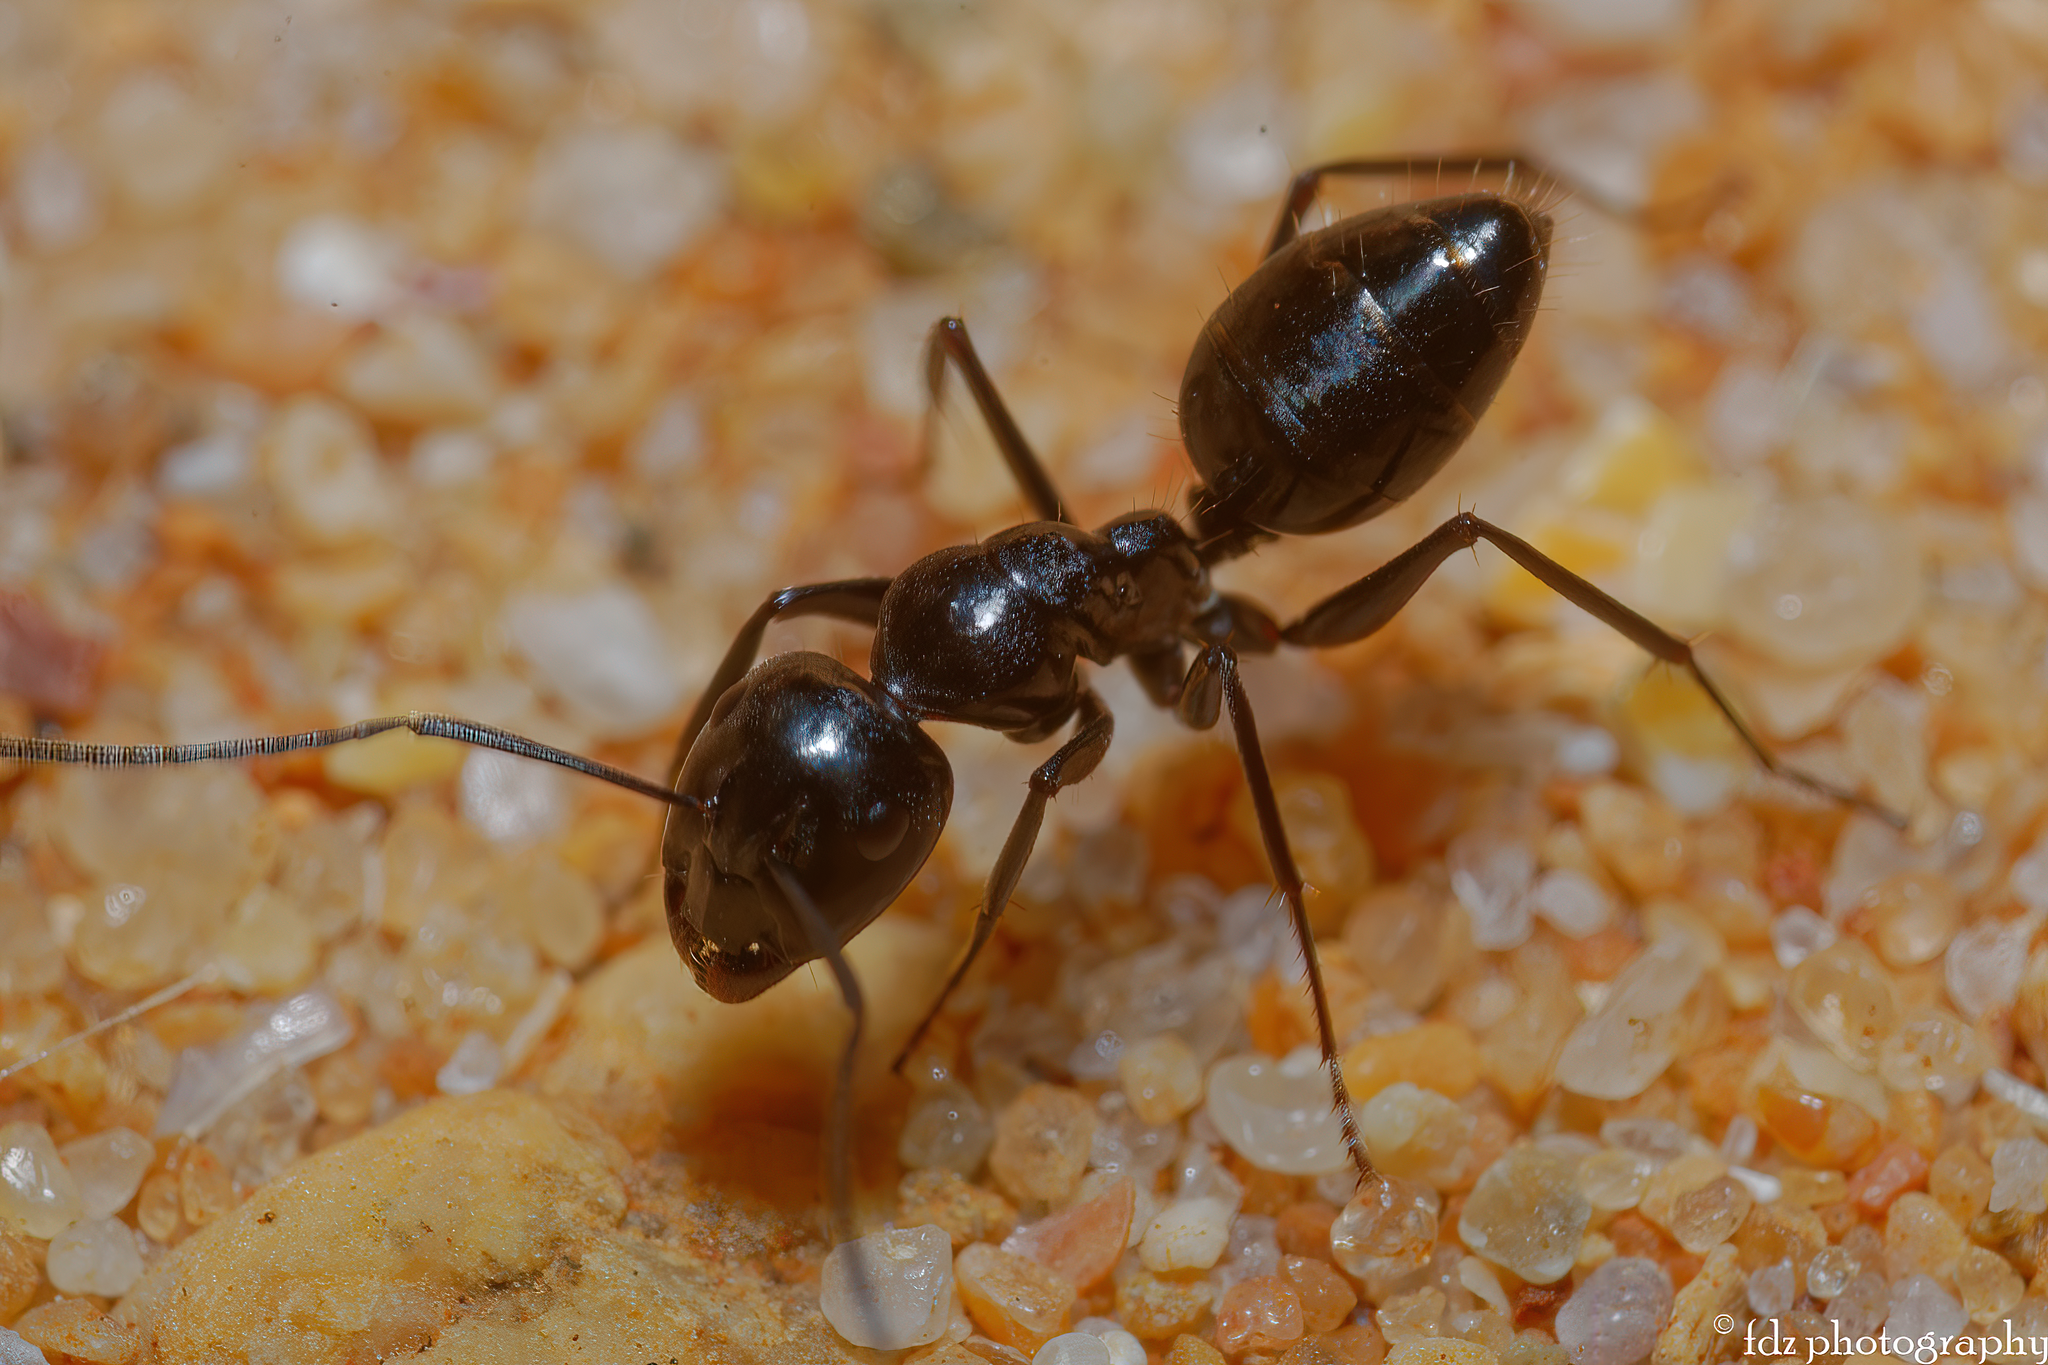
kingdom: Animalia
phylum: Arthropoda
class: Insecta
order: Hymenoptera
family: Formicidae
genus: Camponotus
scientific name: Camponotus foreli
